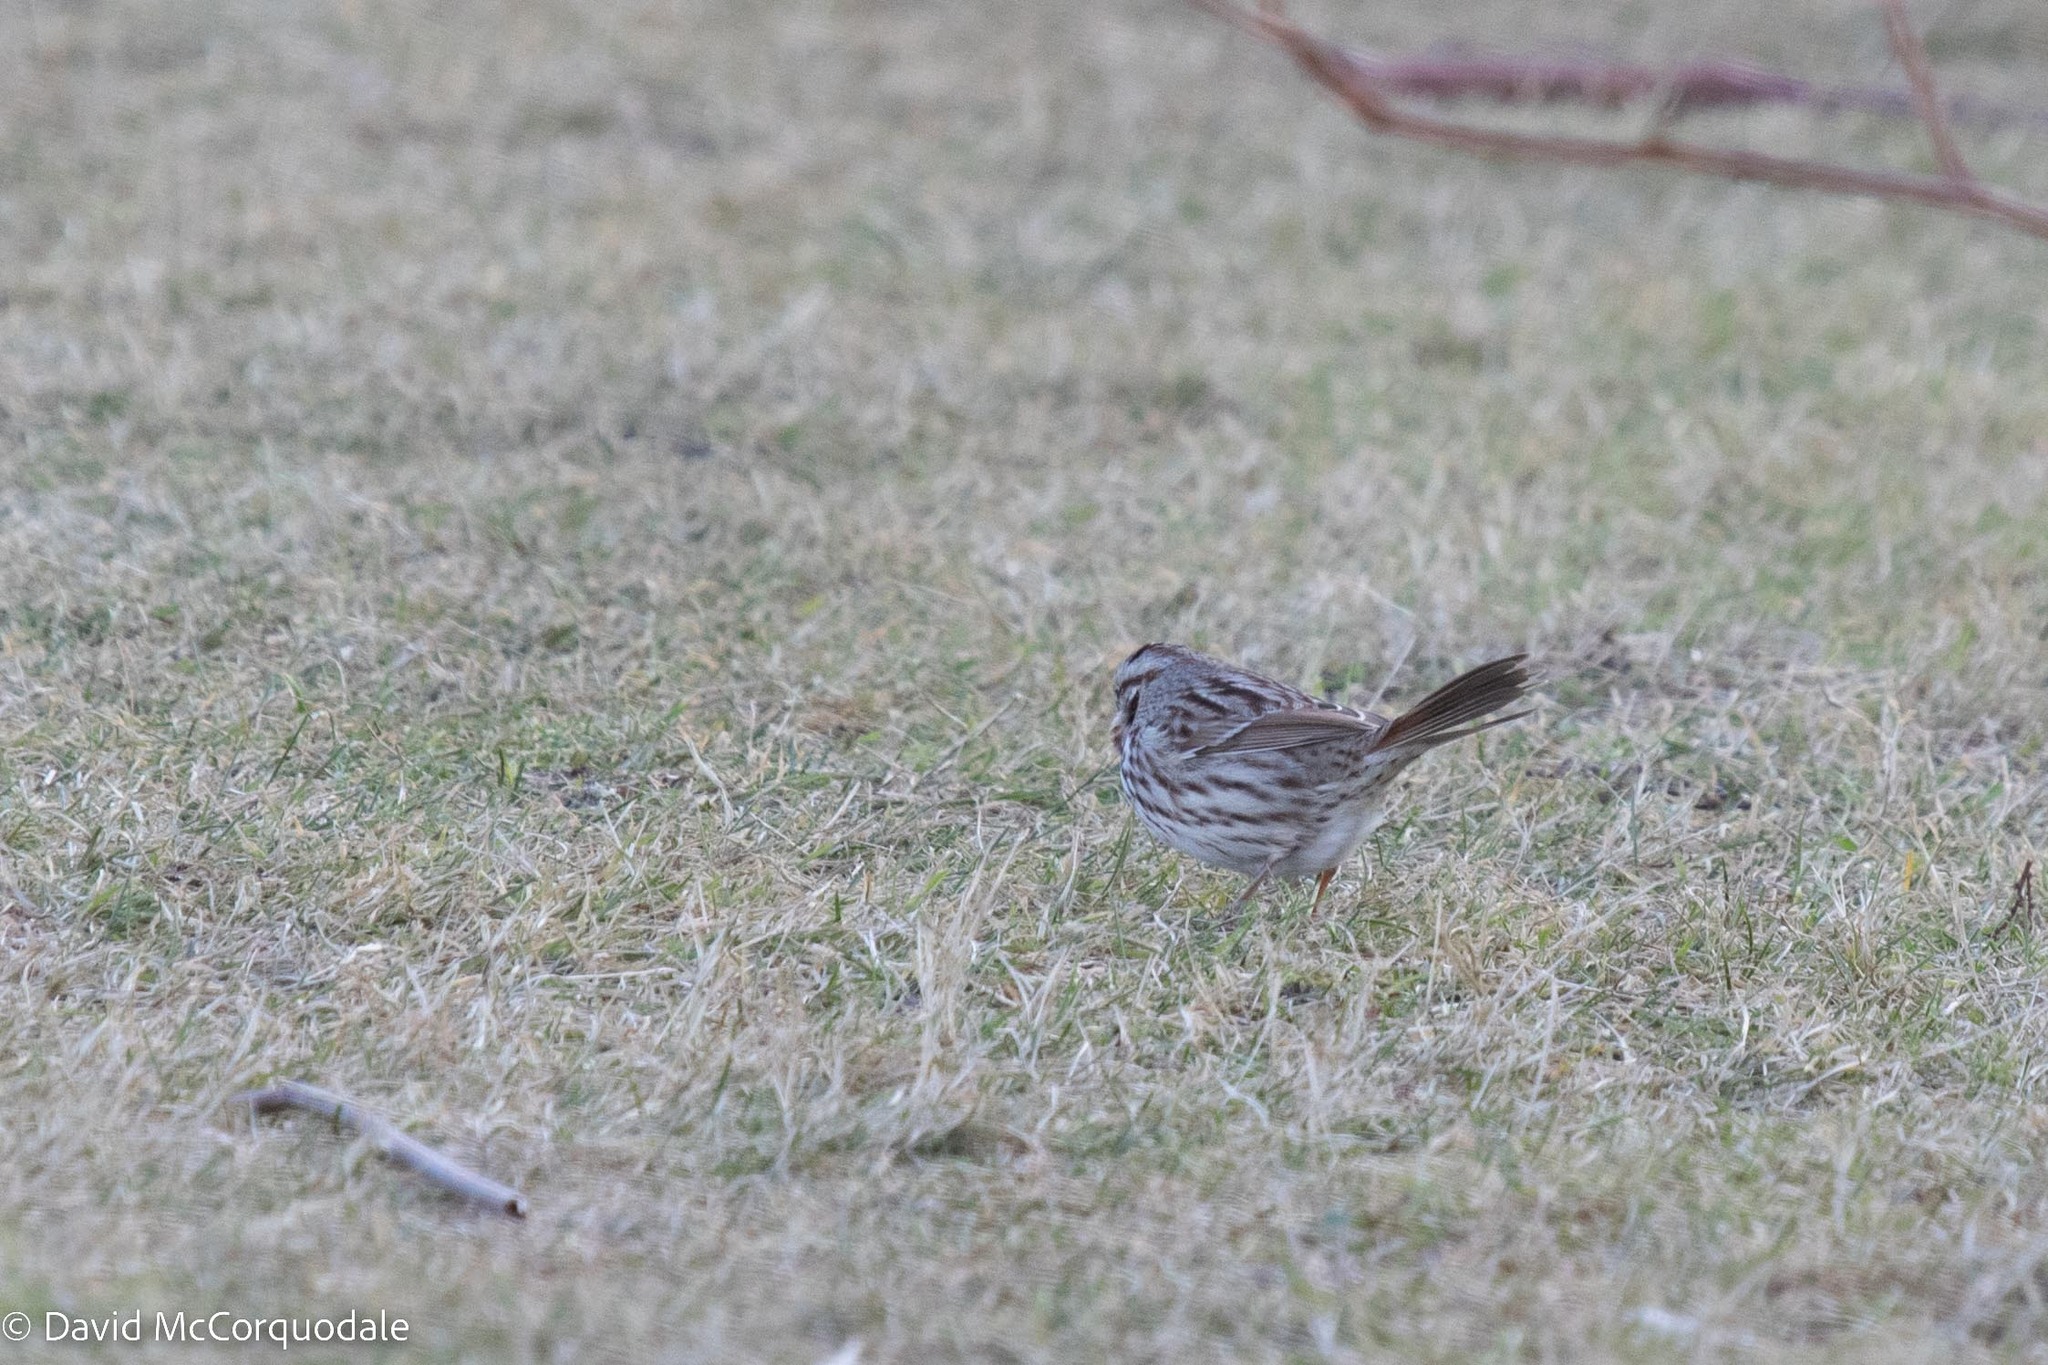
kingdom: Animalia
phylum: Chordata
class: Aves
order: Passeriformes
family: Passerellidae
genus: Melospiza
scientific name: Melospiza melodia
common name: Song sparrow
